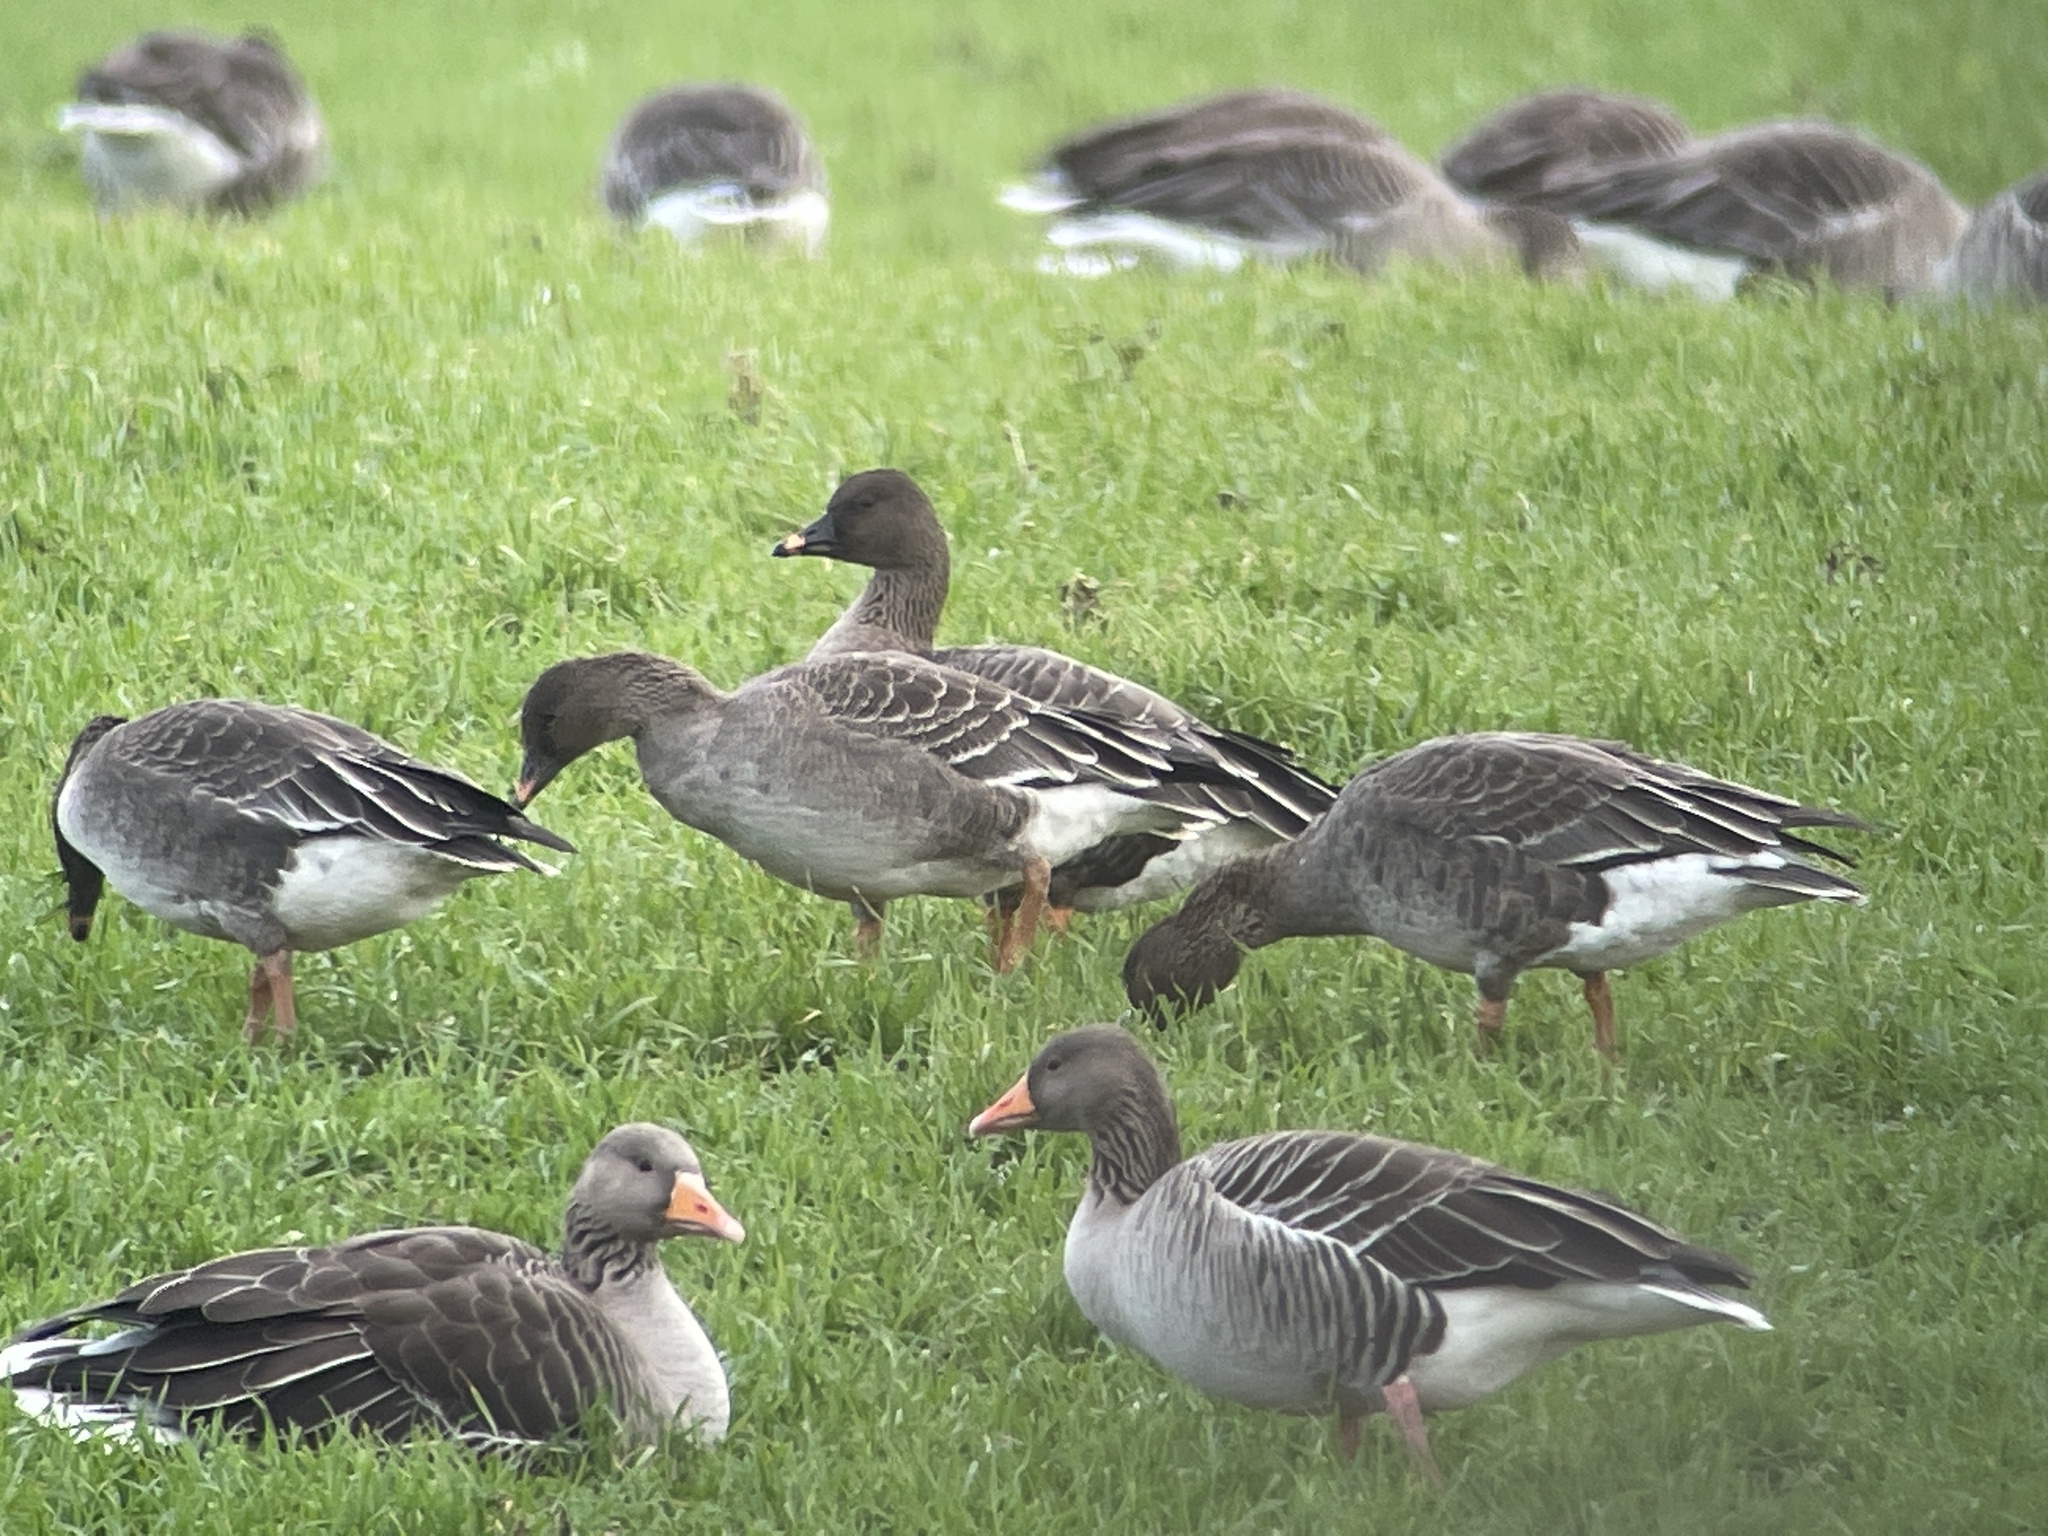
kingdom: Animalia
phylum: Chordata
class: Aves
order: Anseriformes
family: Anatidae
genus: Anser
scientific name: Anser serrirostris
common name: Tundra bean goose
